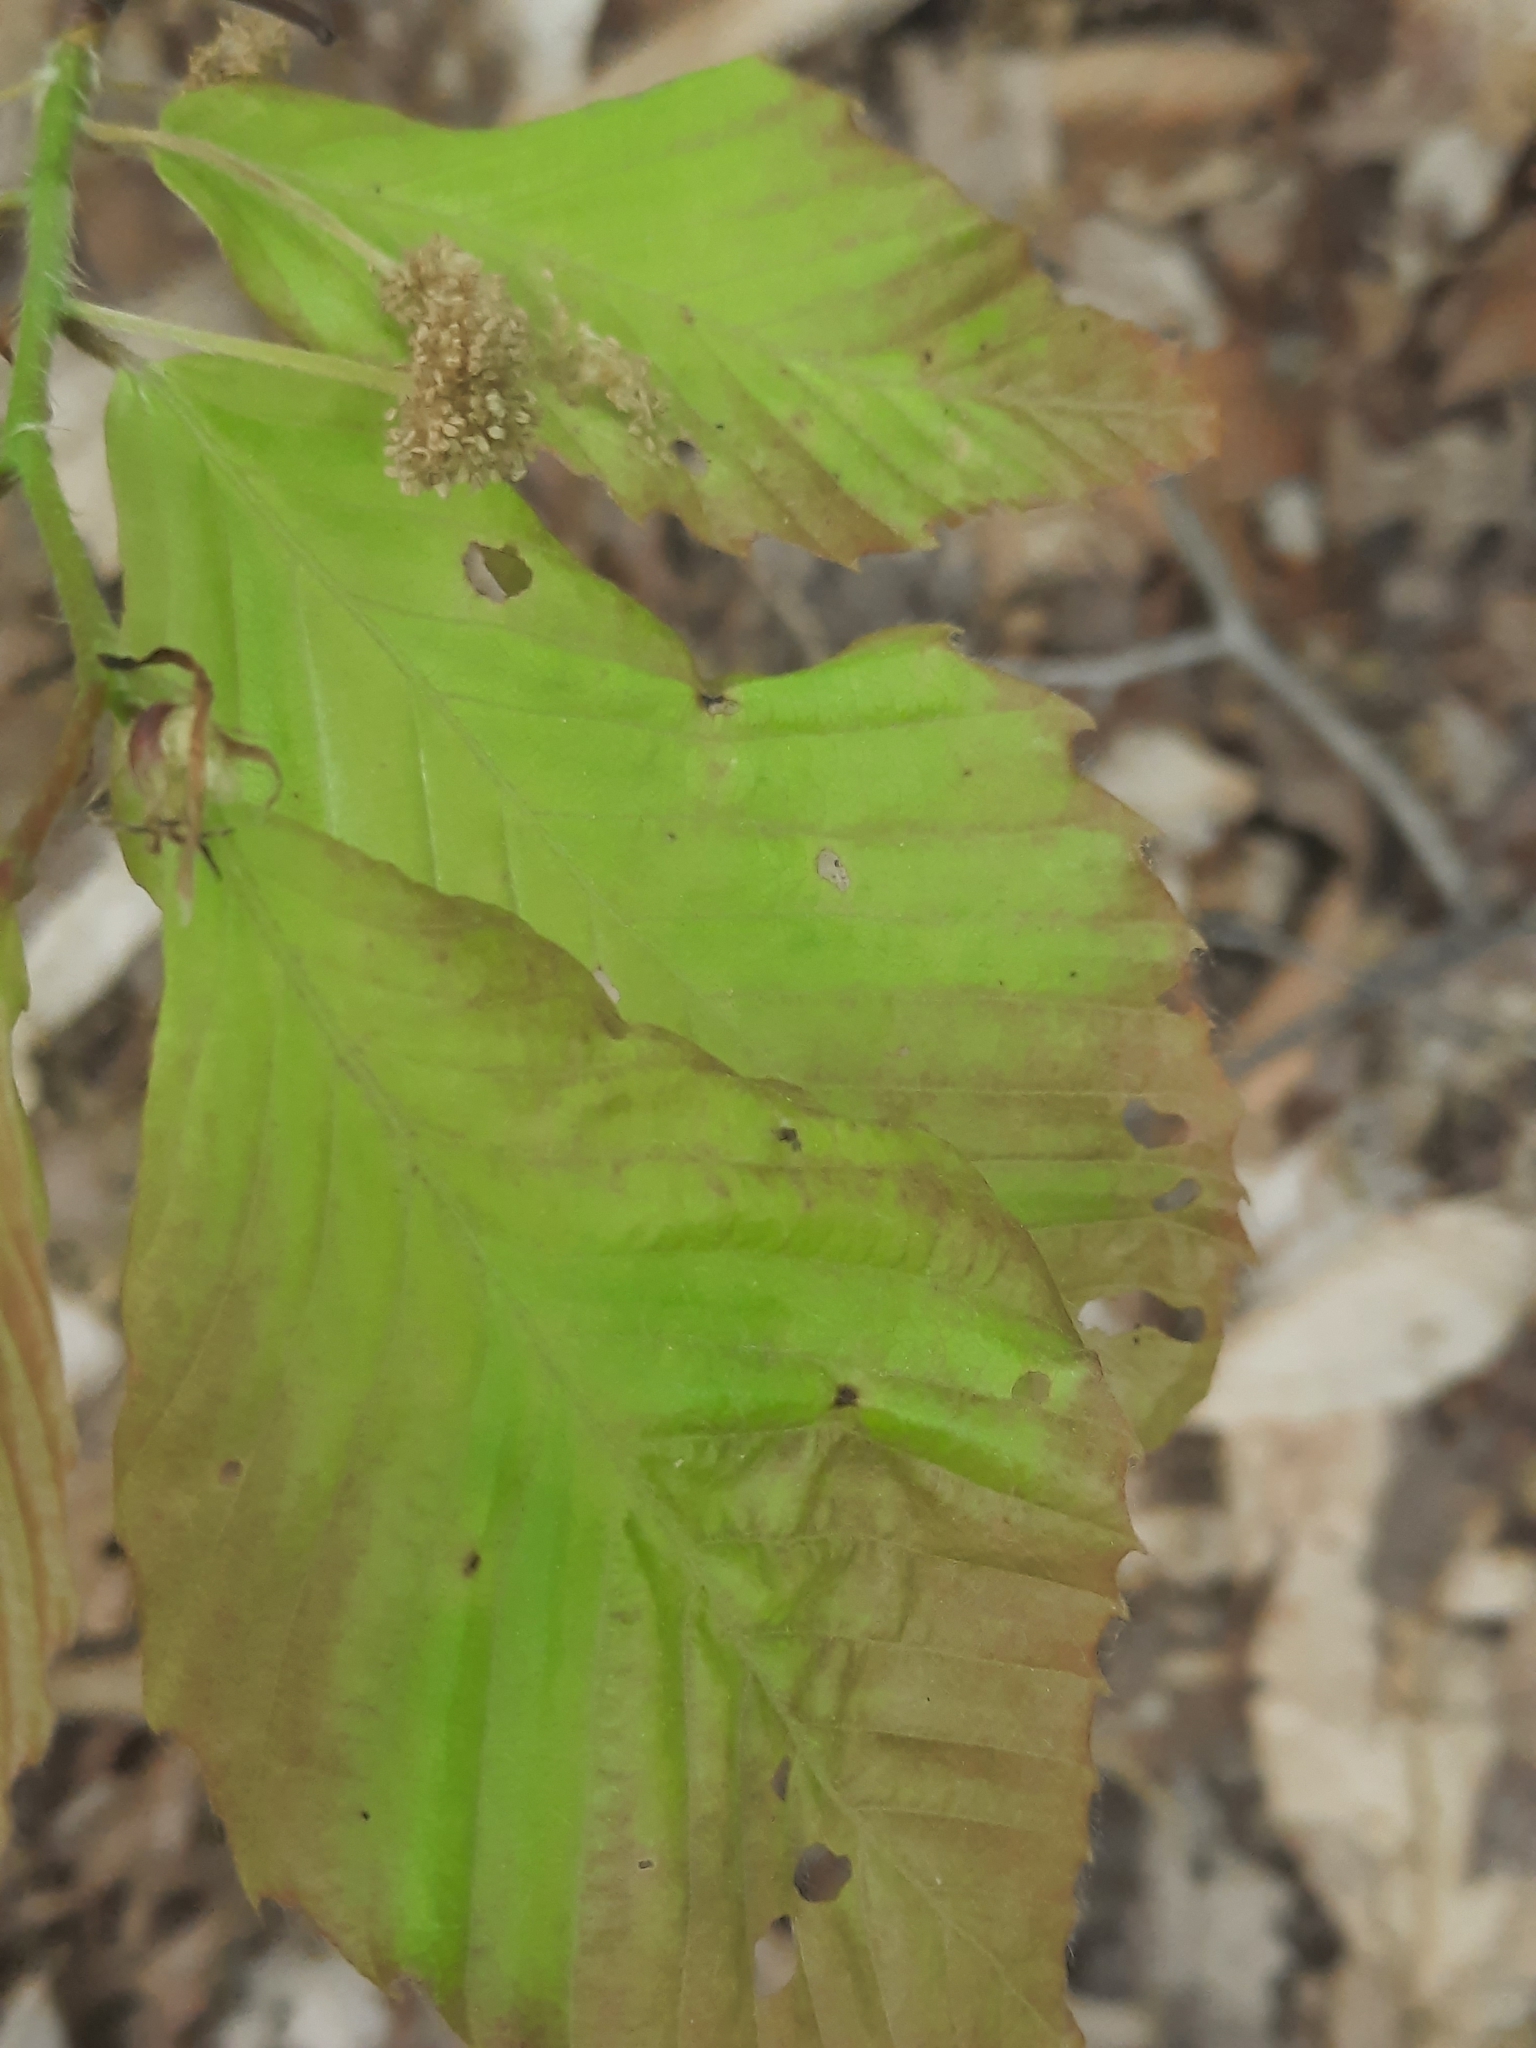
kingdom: Animalia
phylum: Nematoda
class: Chromadorea
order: Rhabditida
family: Anguinidae
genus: Litylenchus
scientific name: Litylenchus crenatae
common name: Beech leaf disease
